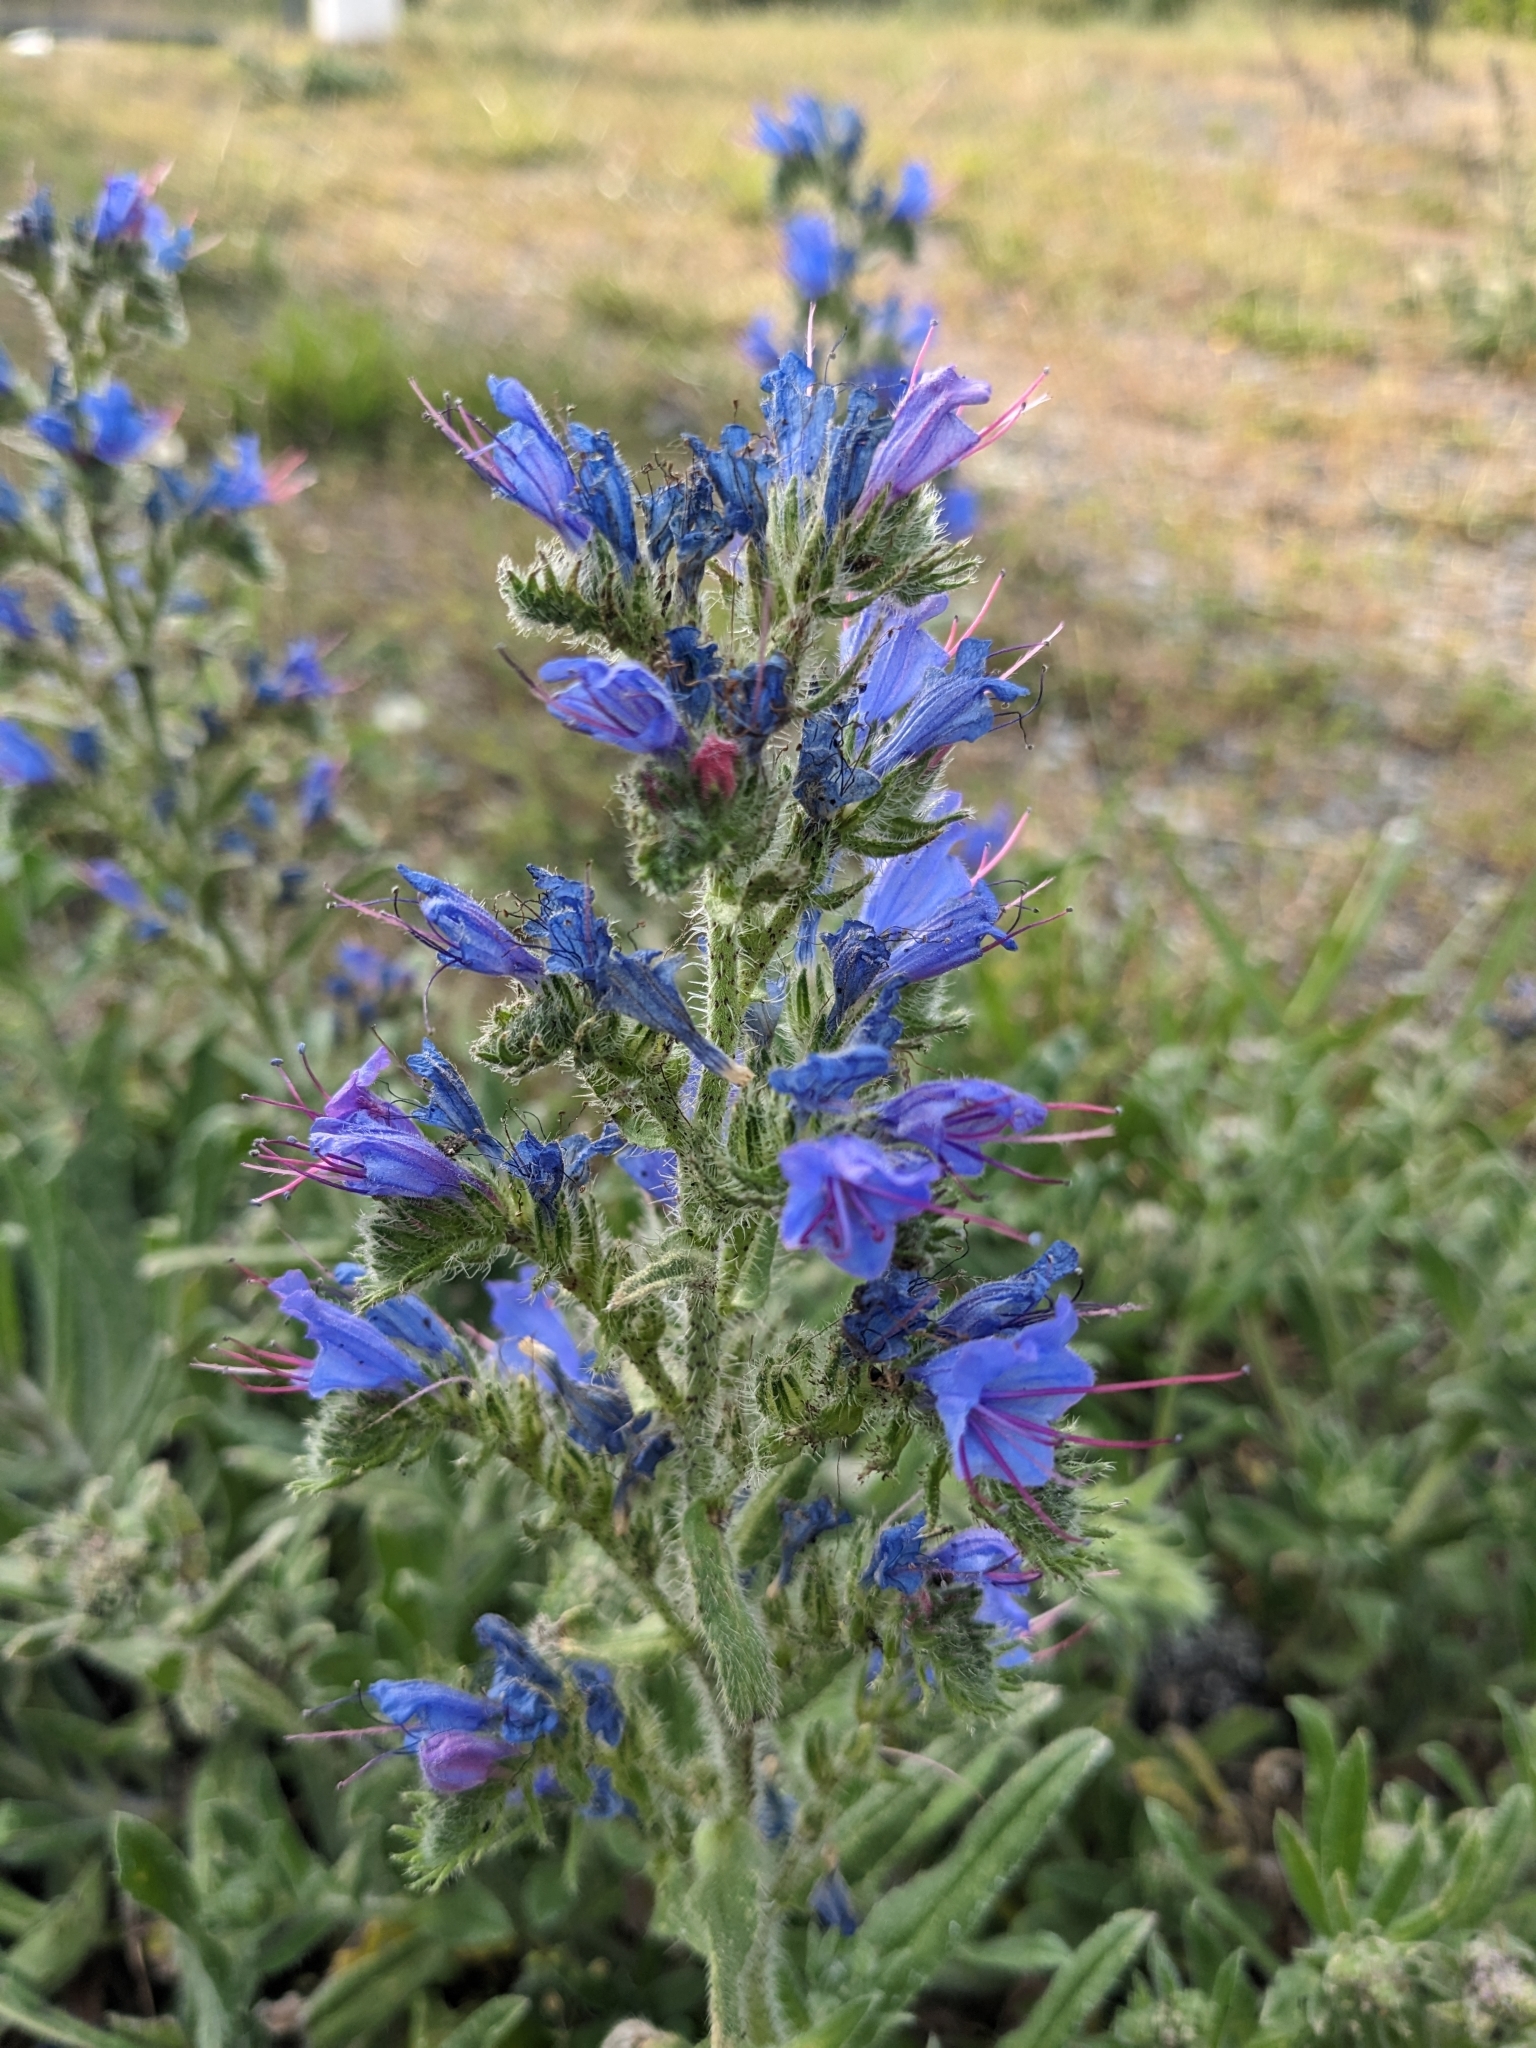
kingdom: Plantae
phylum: Tracheophyta
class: Magnoliopsida
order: Boraginales
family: Boraginaceae
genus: Echium
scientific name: Echium vulgare
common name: Common viper's bugloss
